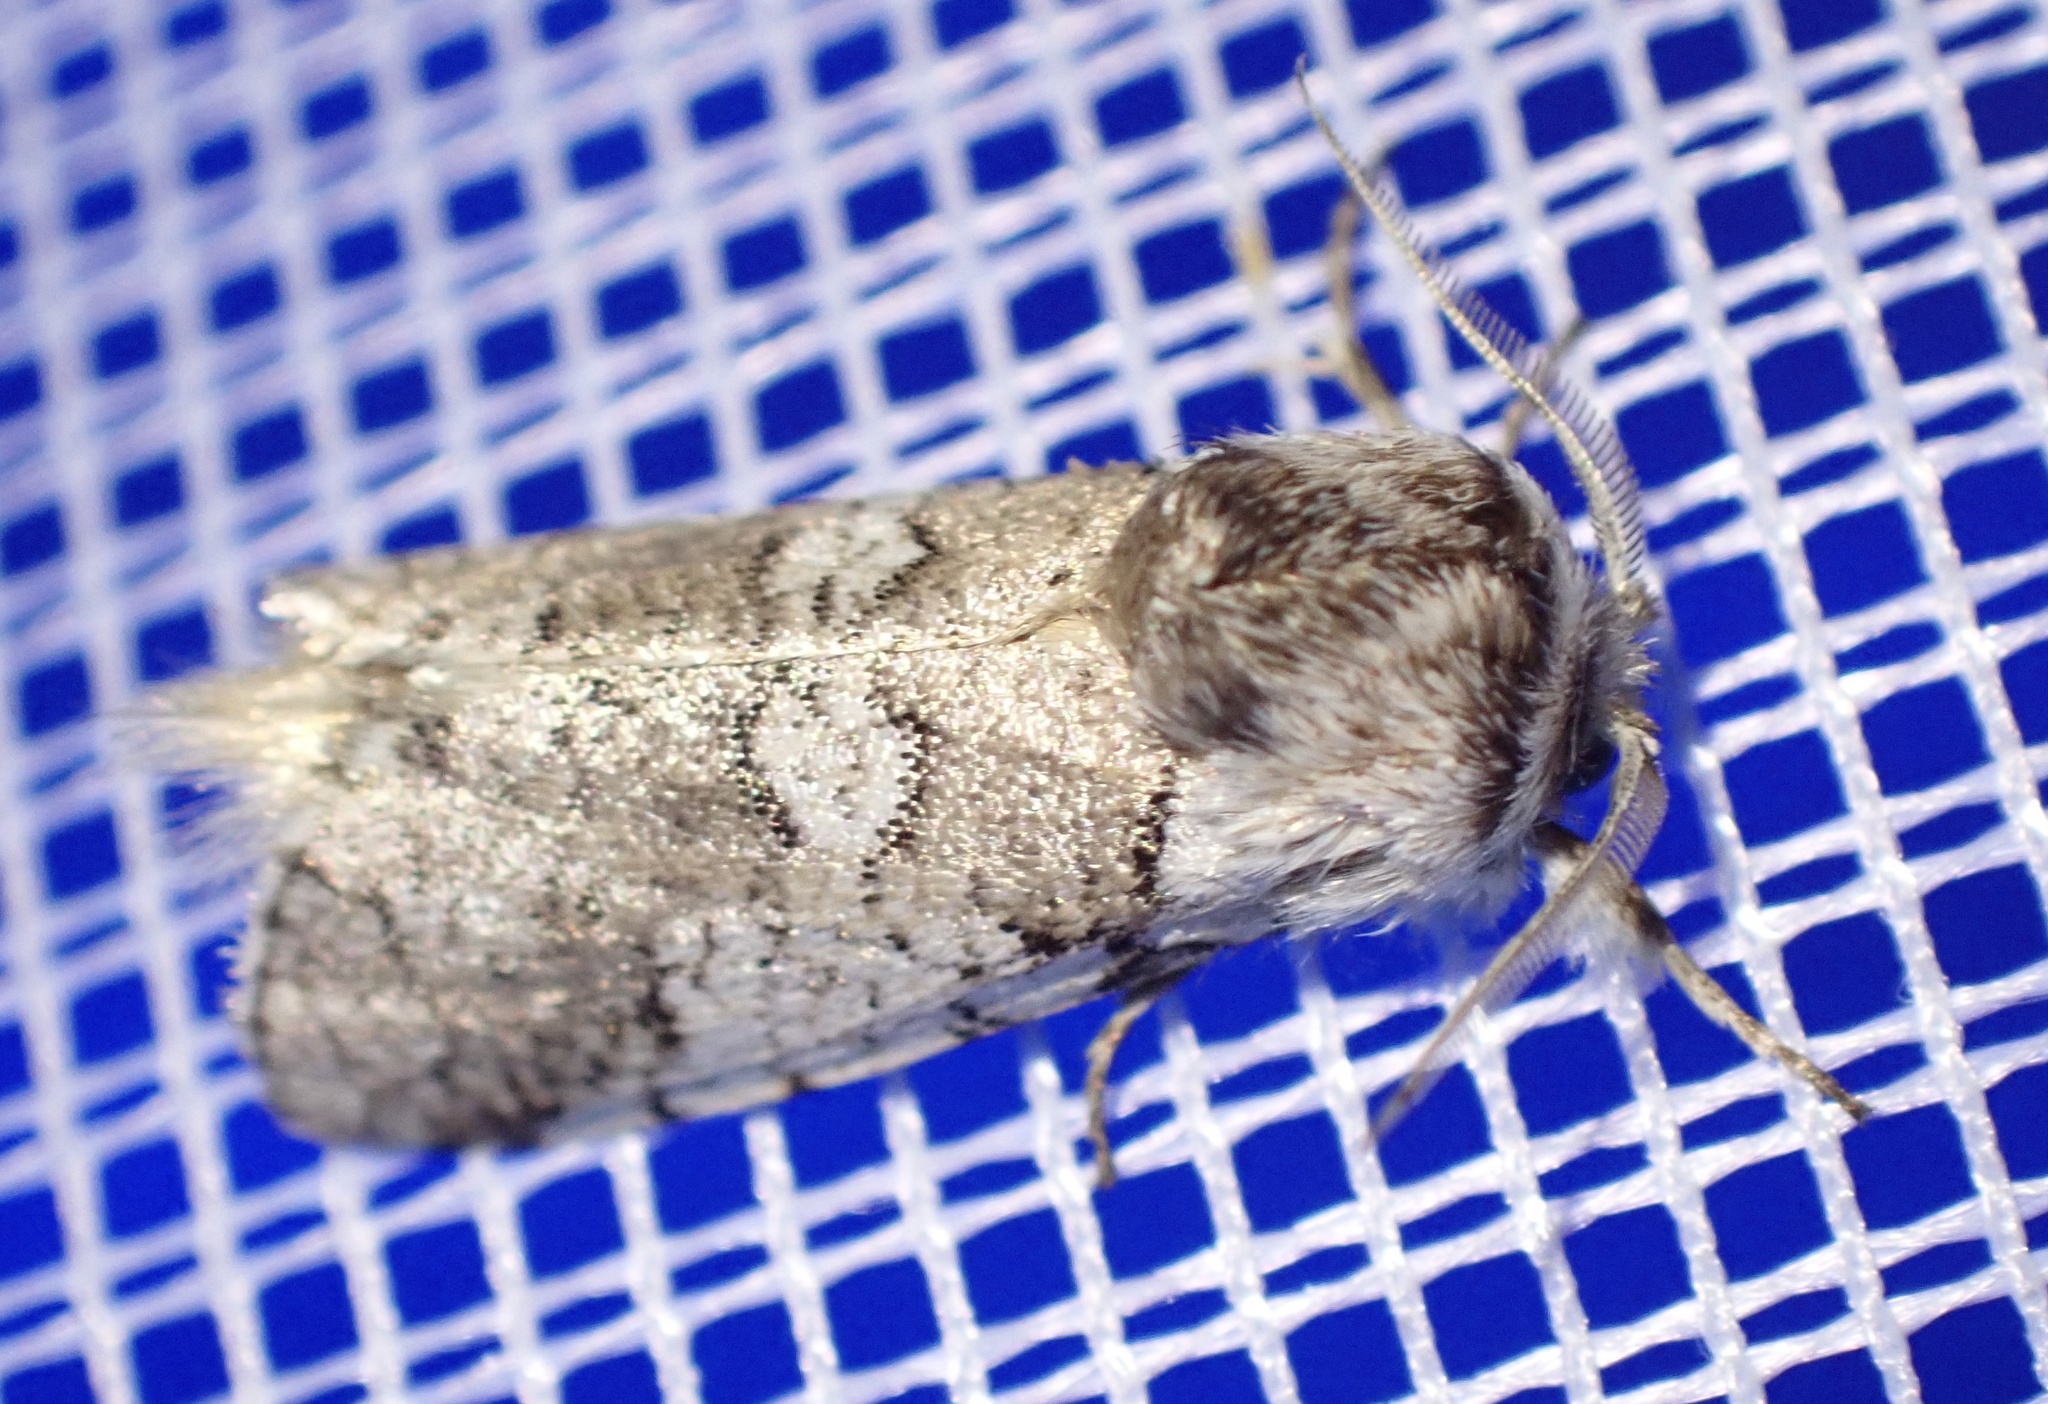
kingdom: Animalia
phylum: Arthropoda
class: Insecta
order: Lepidoptera
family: Psychidae
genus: Gymnelema
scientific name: Gymnelema vinctus
